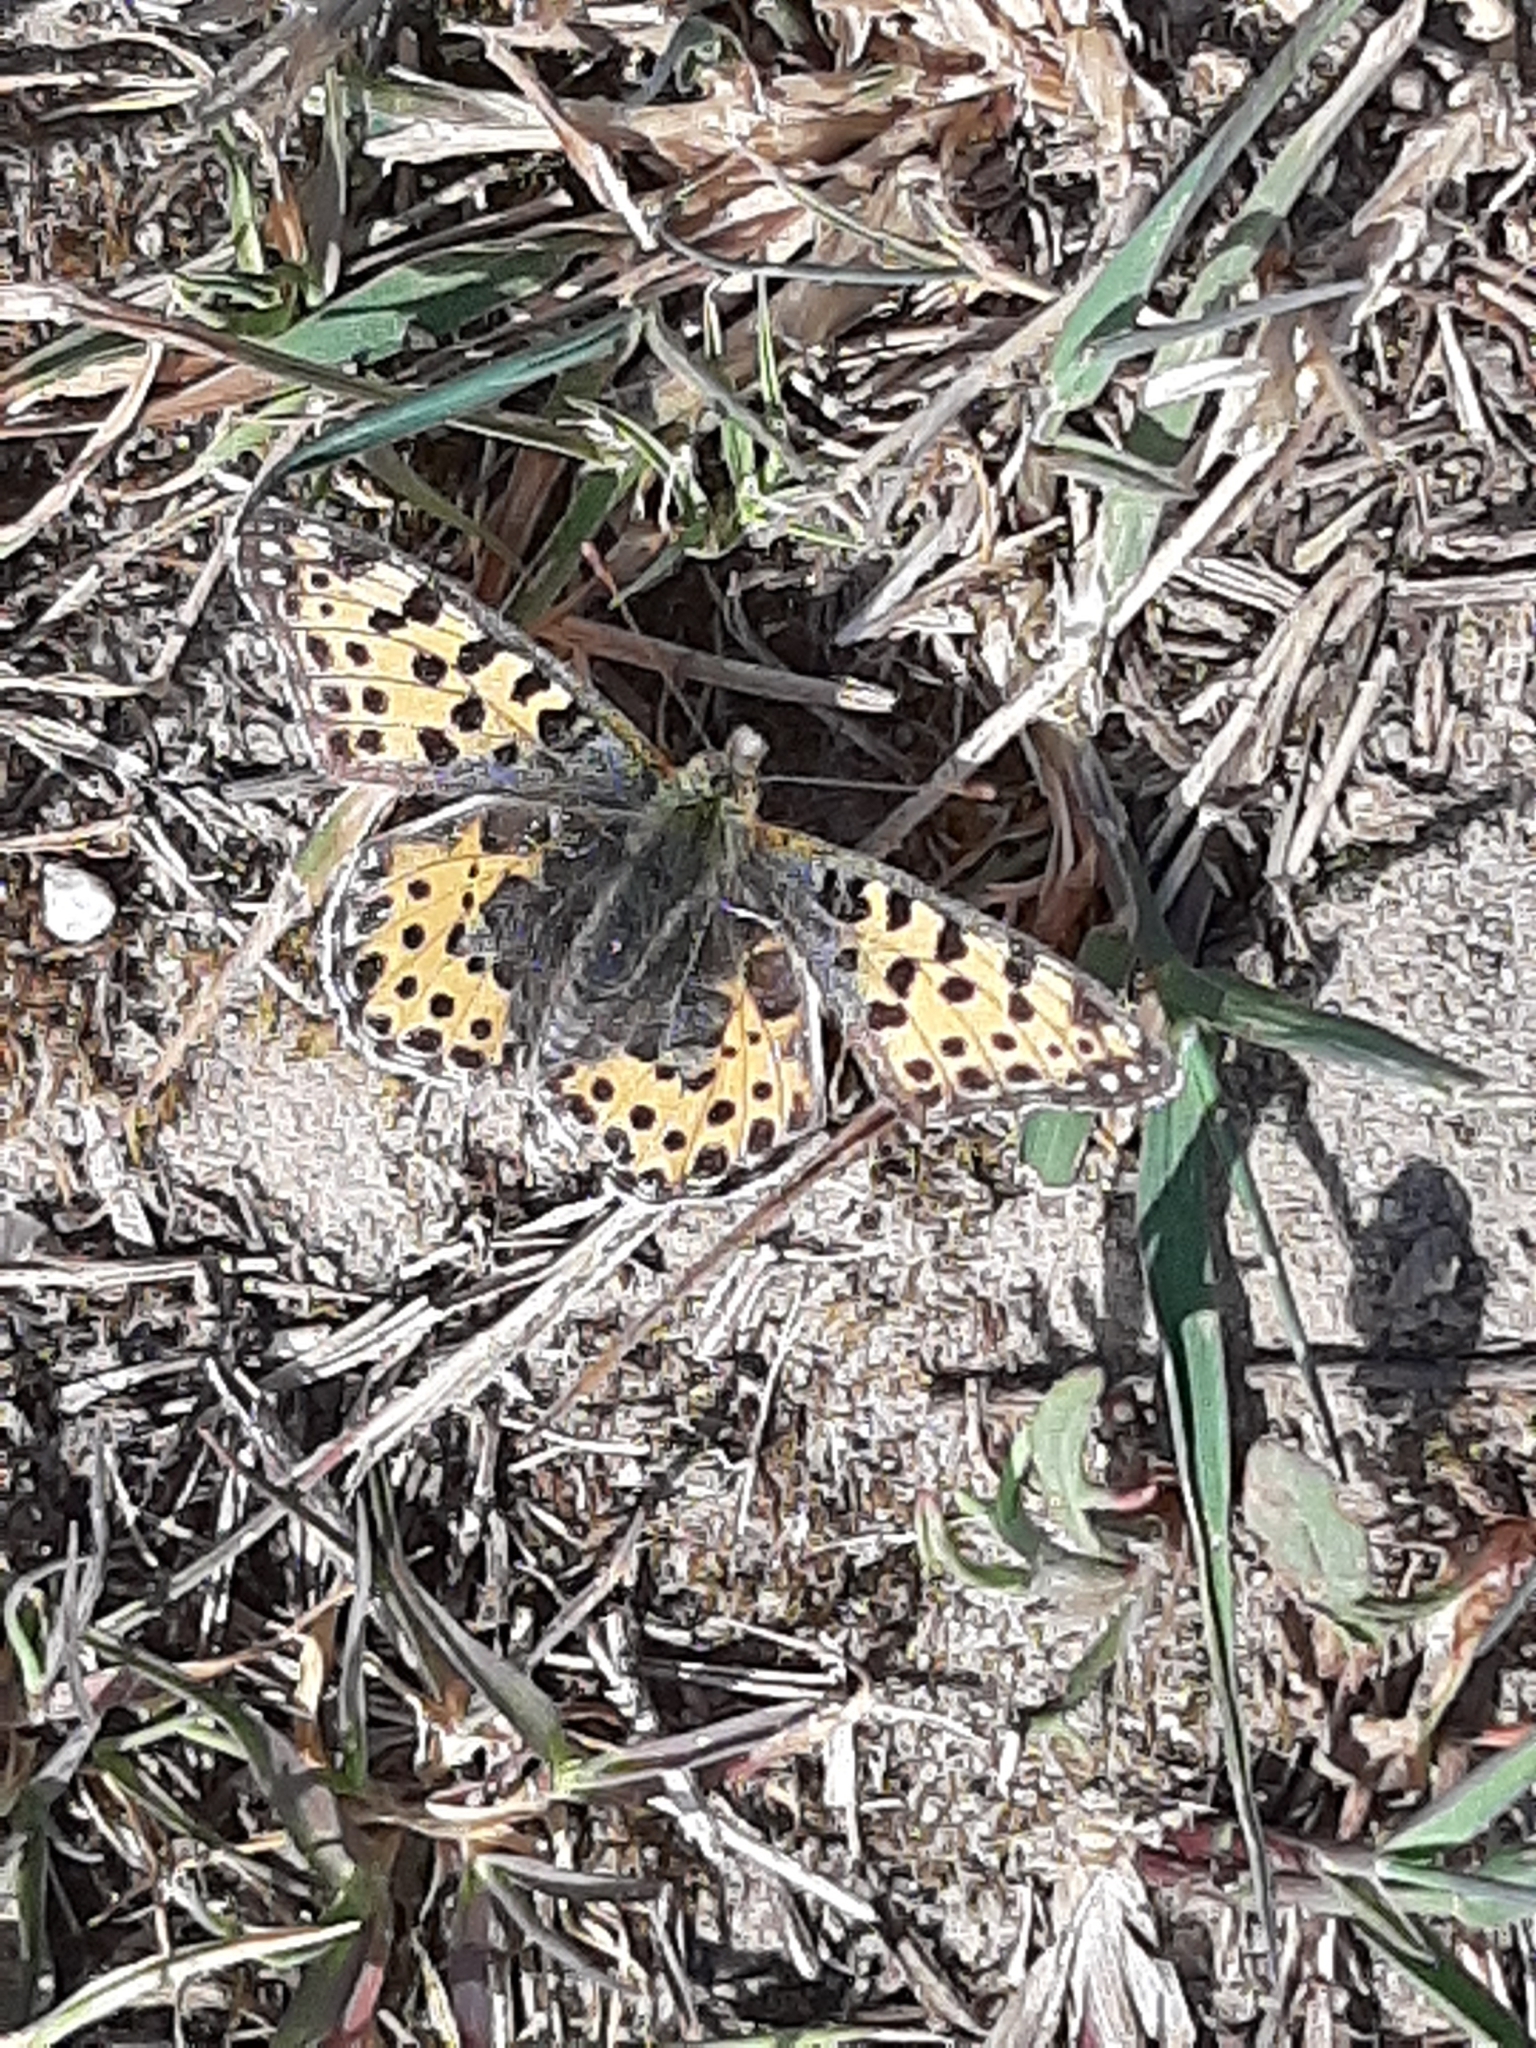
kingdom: Animalia
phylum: Arthropoda
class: Insecta
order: Lepidoptera
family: Nymphalidae
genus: Issoria
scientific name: Issoria lathonia
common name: Queen of spain fritillary
